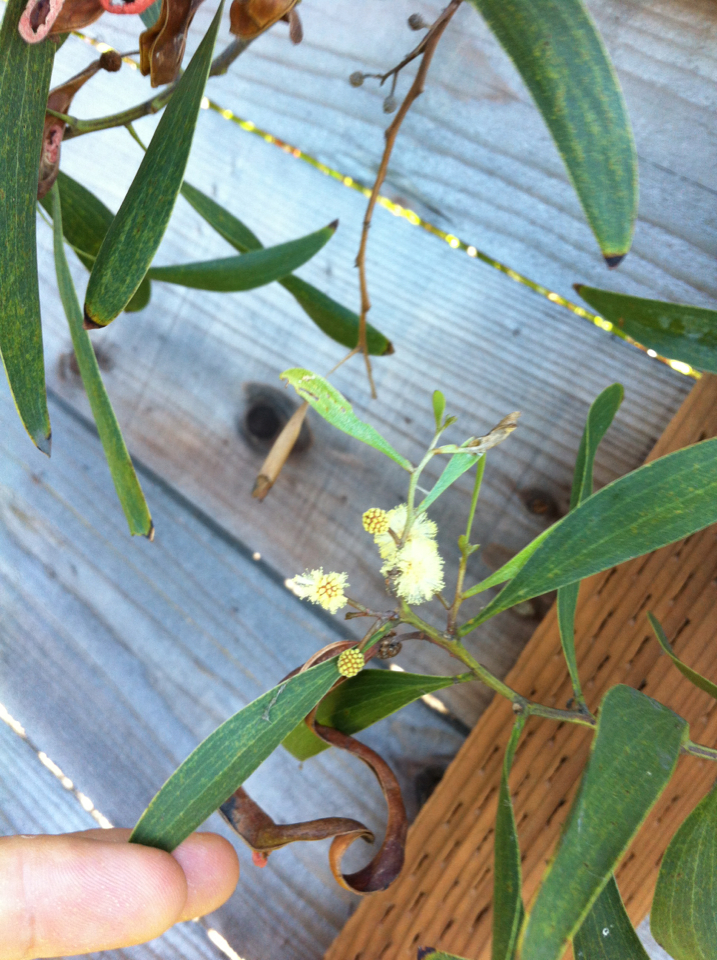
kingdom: Plantae
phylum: Tracheophyta
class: Magnoliopsida
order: Fabales
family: Fabaceae
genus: Acacia
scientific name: Acacia melanoxylon
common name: Blackwood
